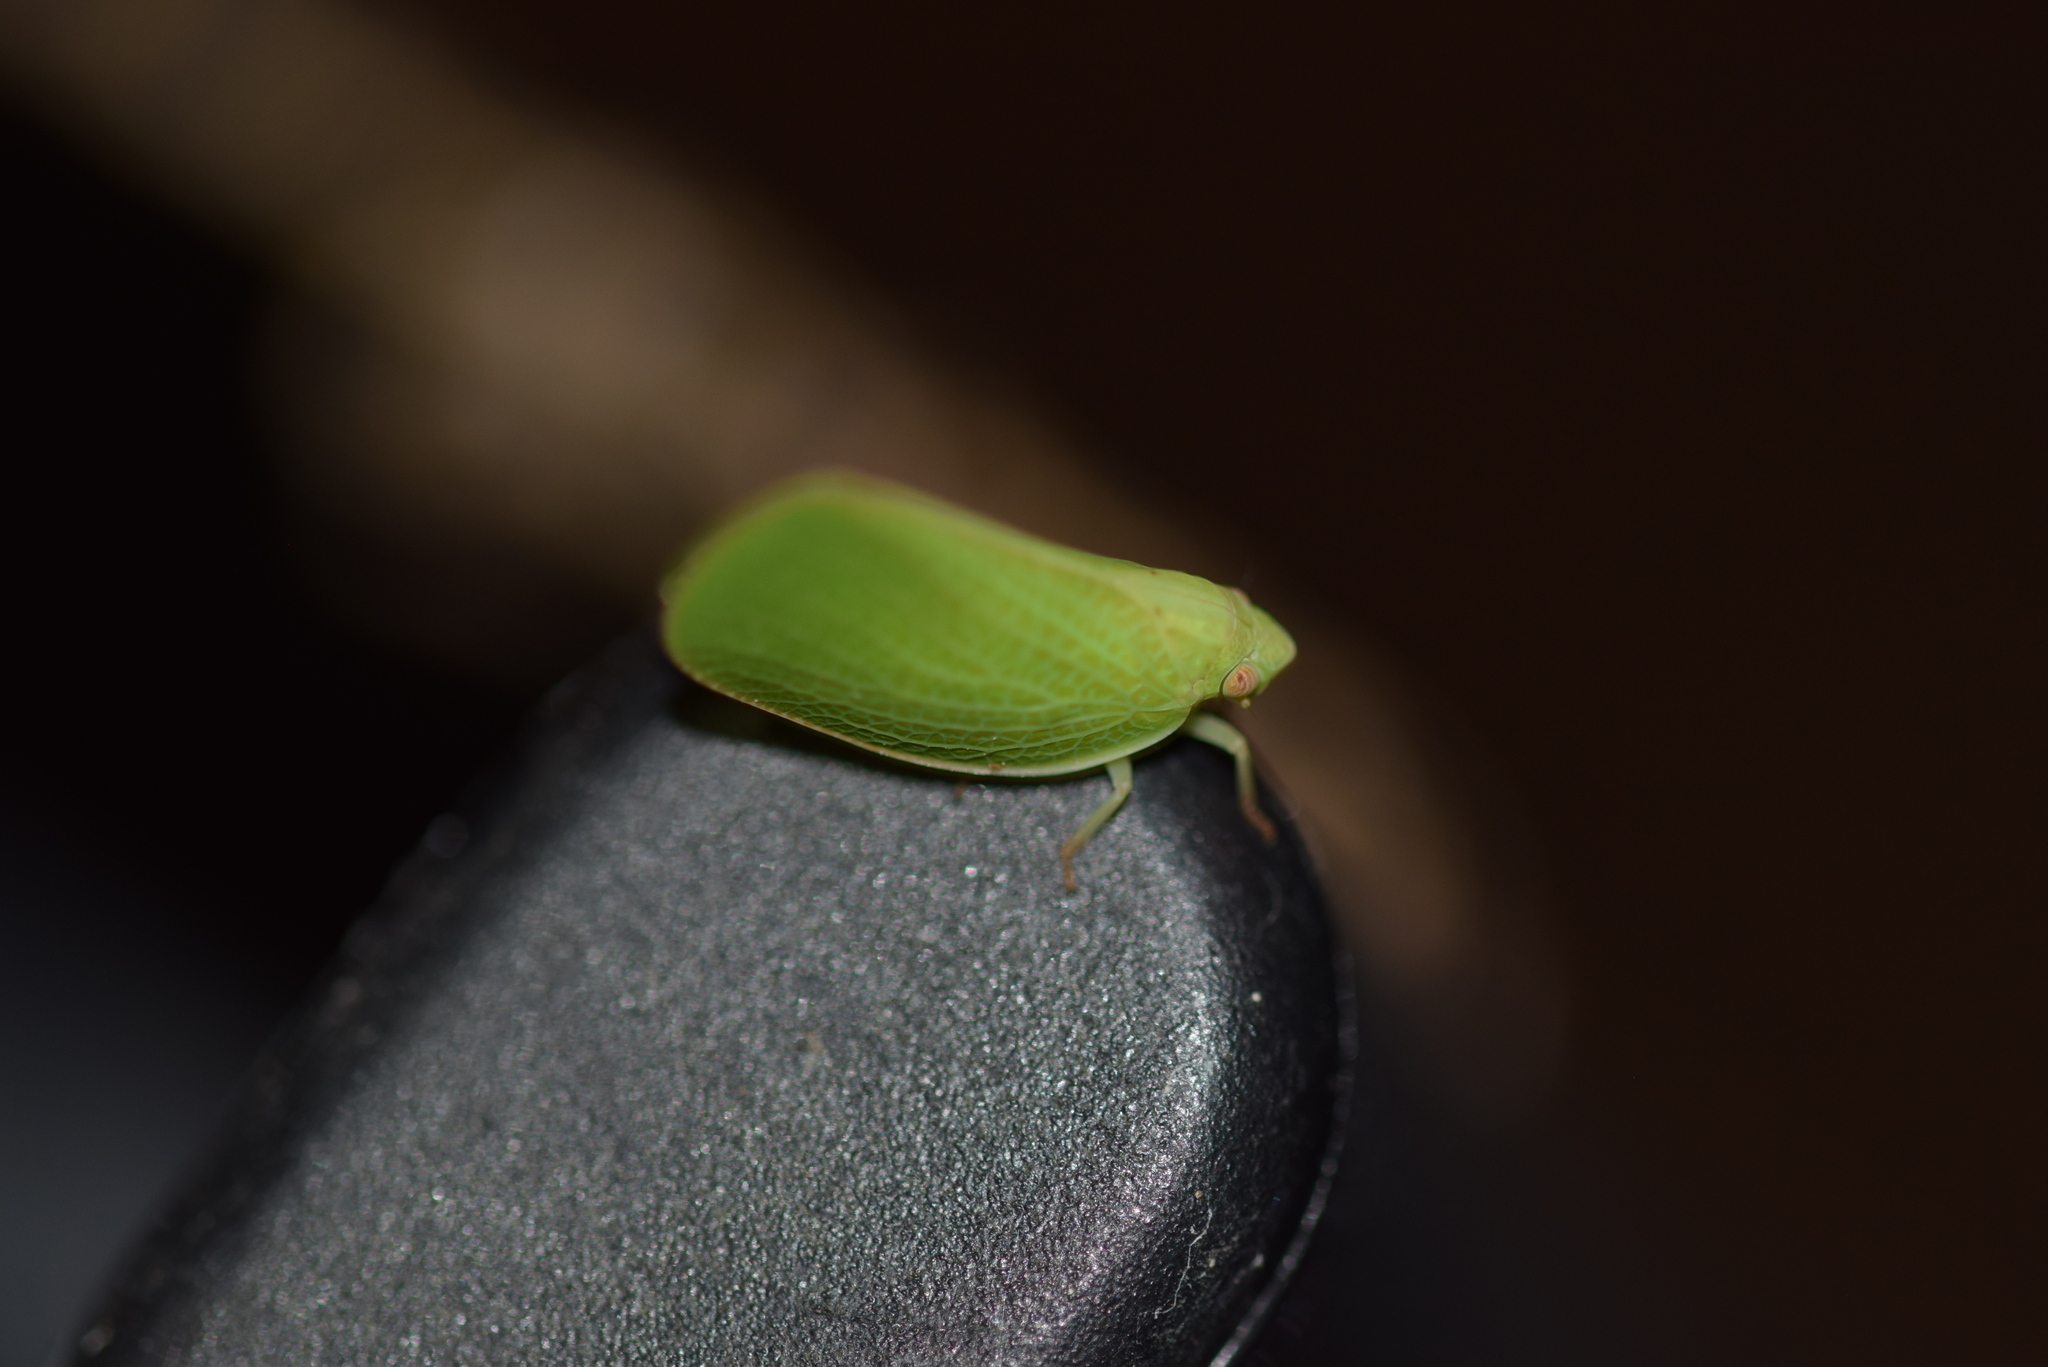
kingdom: Animalia
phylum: Arthropoda
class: Insecta
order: Hemiptera
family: Acanaloniidae
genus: Acanalonia
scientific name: Acanalonia conica
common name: Green cone-headed planthopper
